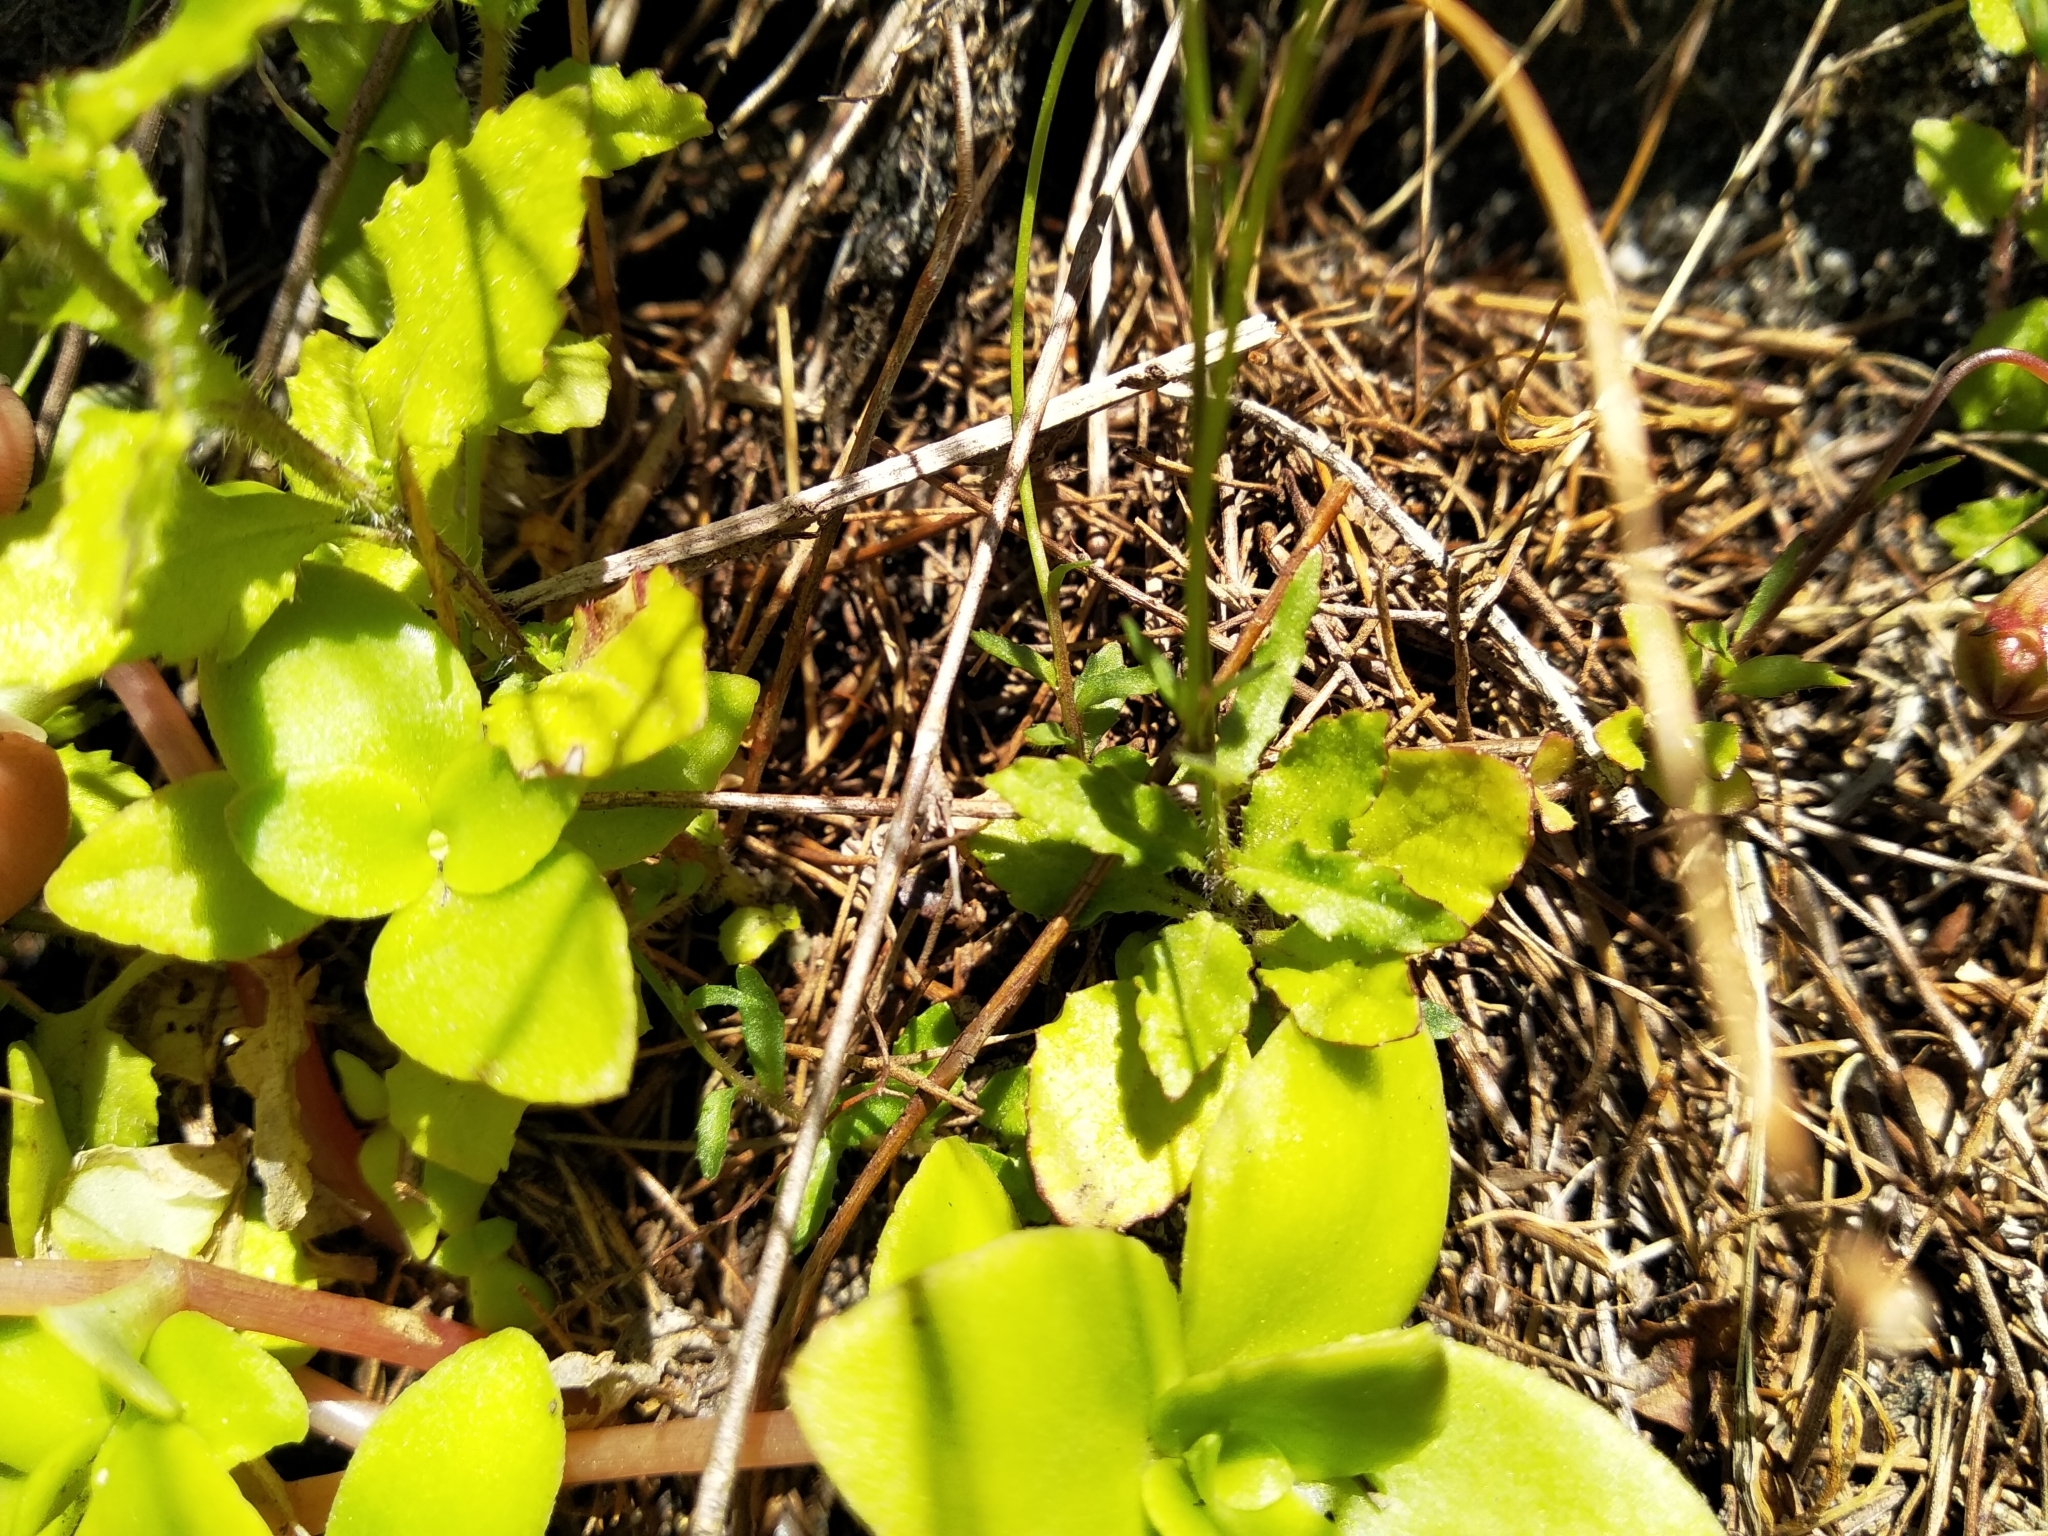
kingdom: Plantae
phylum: Tracheophyta
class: Magnoliopsida
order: Asterales
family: Campanulaceae
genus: Wahlenbergia
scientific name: Wahlenbergia cernua
